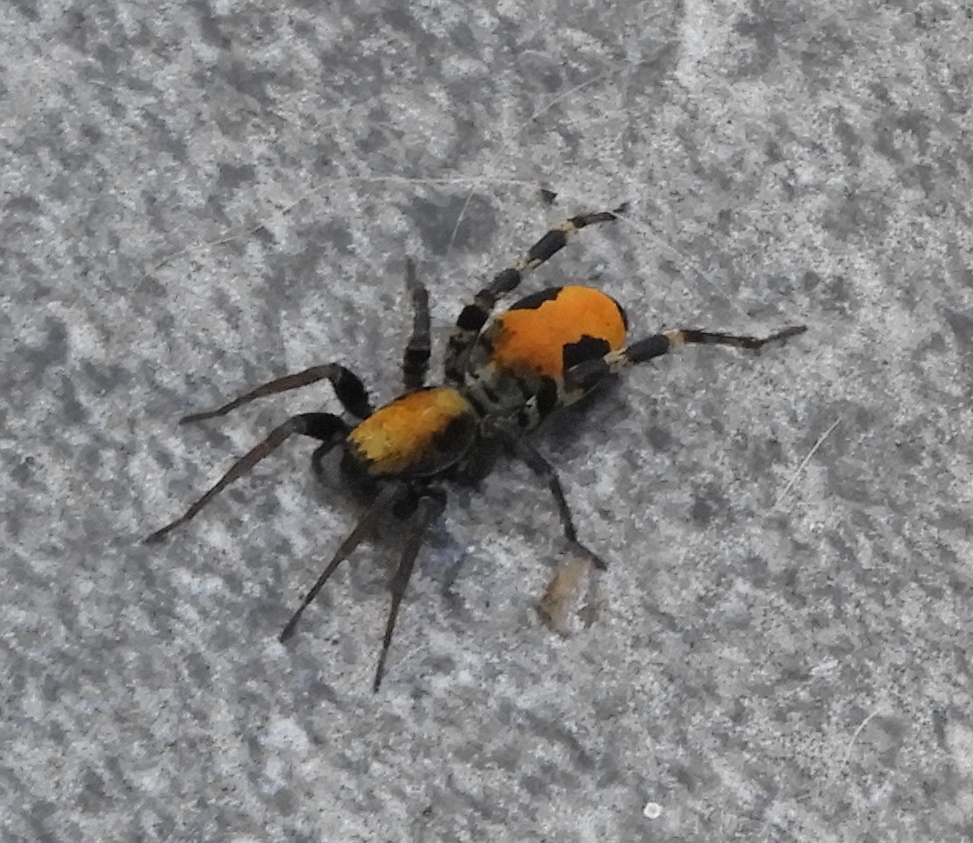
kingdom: Animalia
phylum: Arthropoda
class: Arachnida
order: Araneae
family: Corinnidae
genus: Castianeira
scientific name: Castianeira azteca
